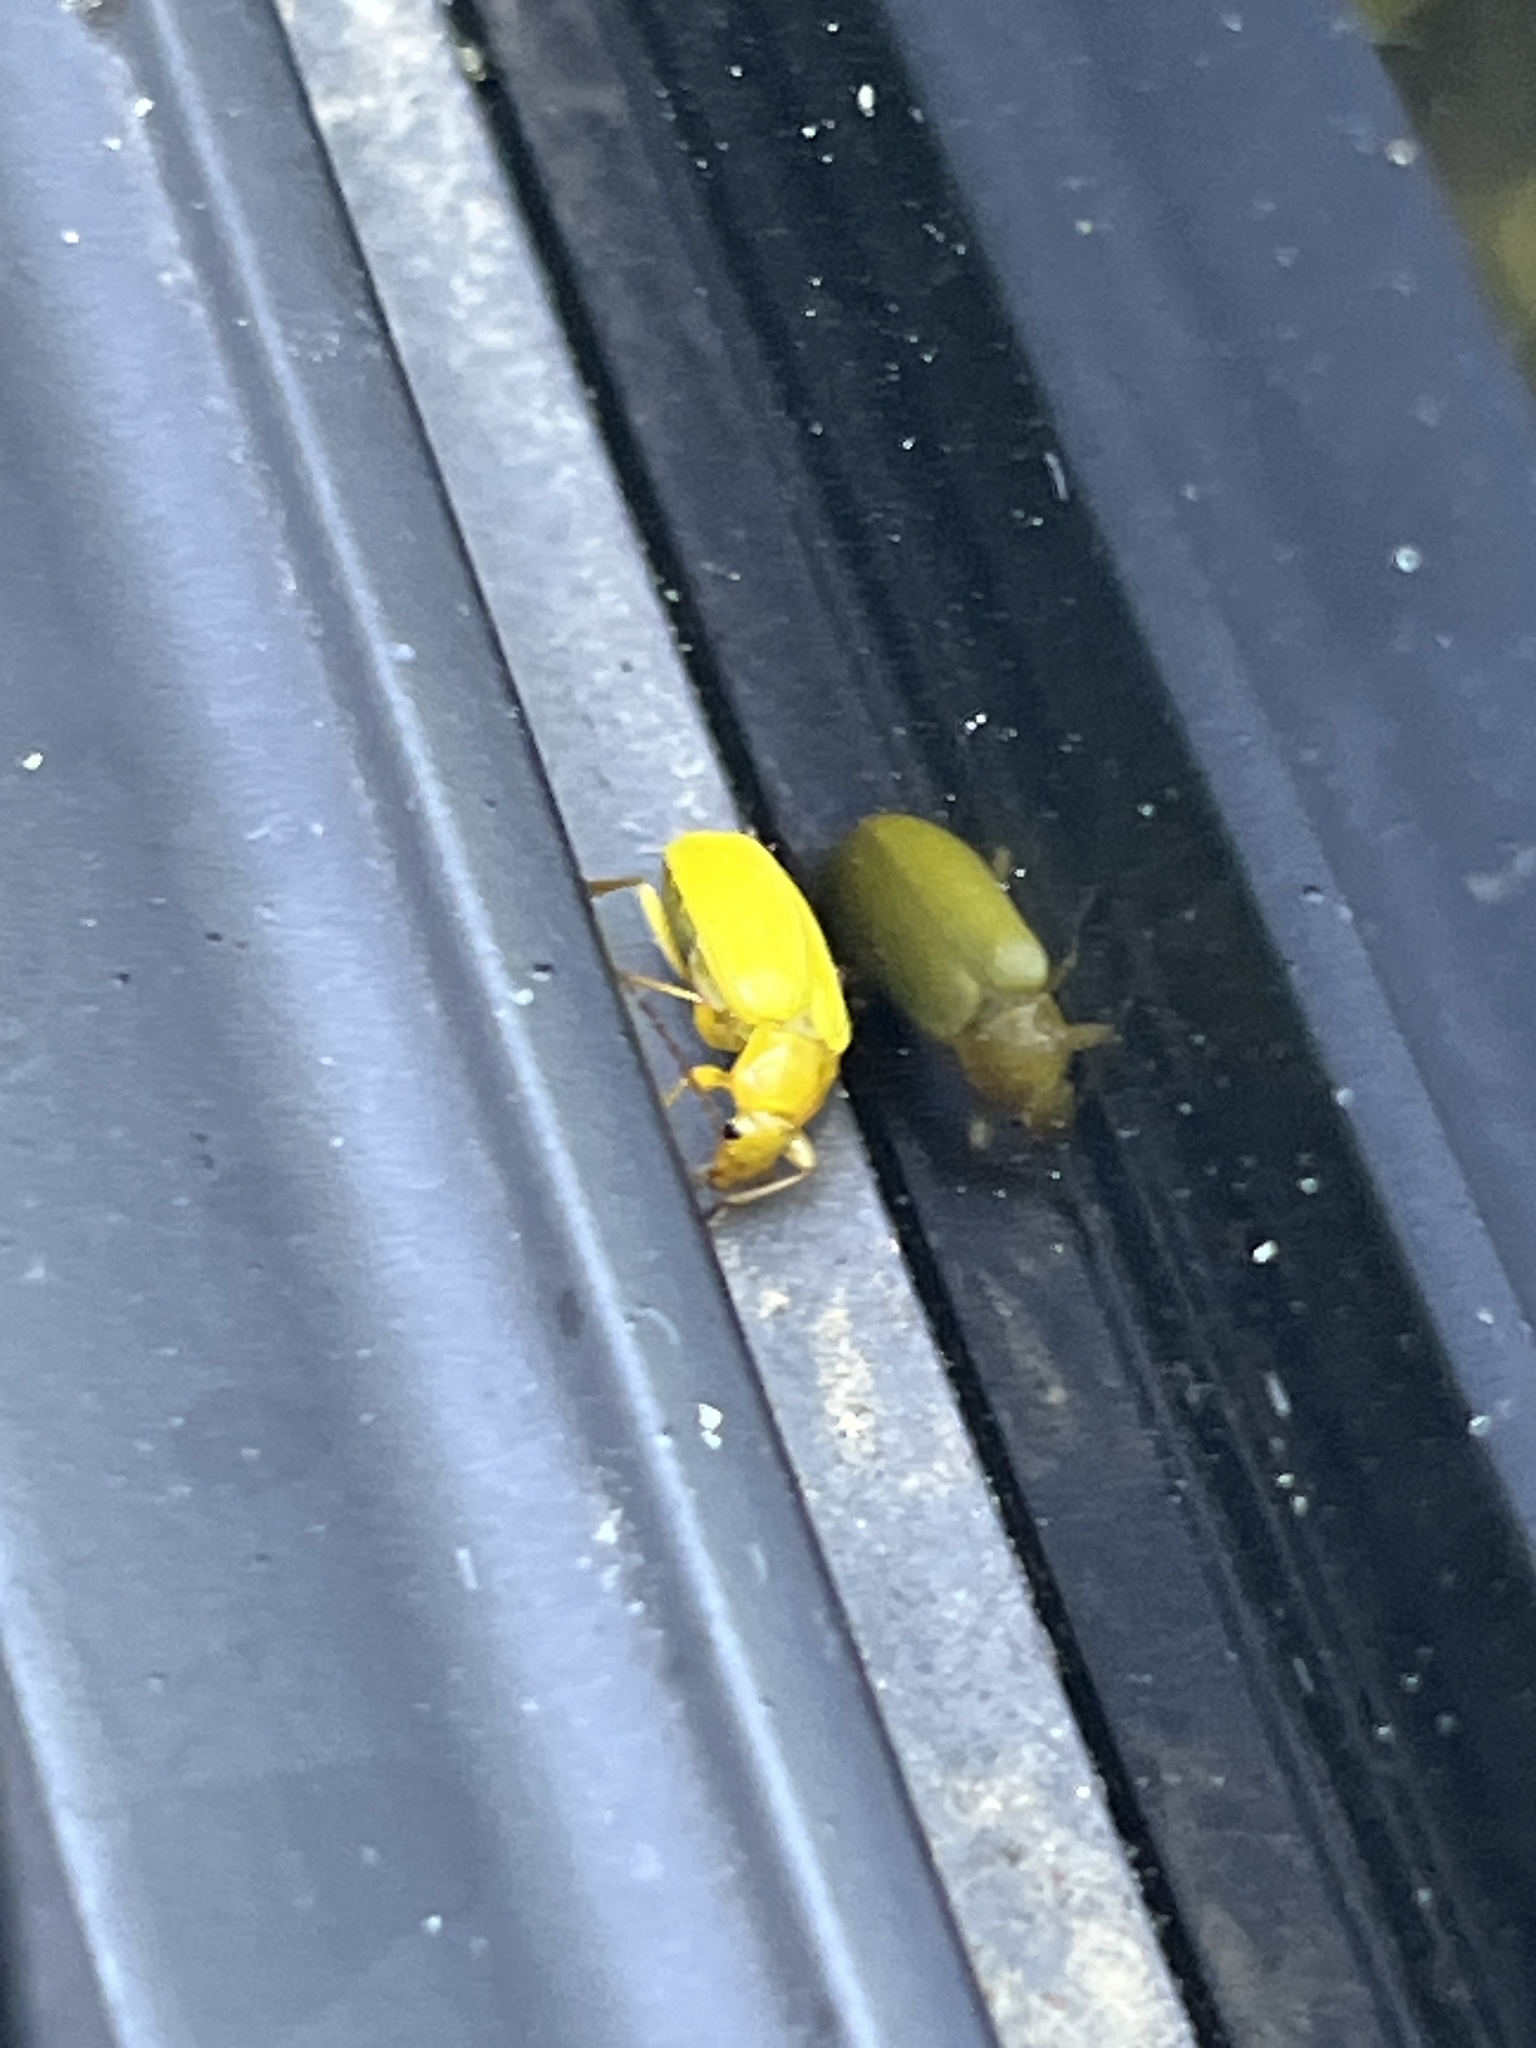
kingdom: Animalia
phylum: Arthropoda
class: Insecta
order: Coleoptera
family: Tenebrionidae
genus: Cteniopus
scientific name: Cteniopus sulphureus
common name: Sulphur beetle
